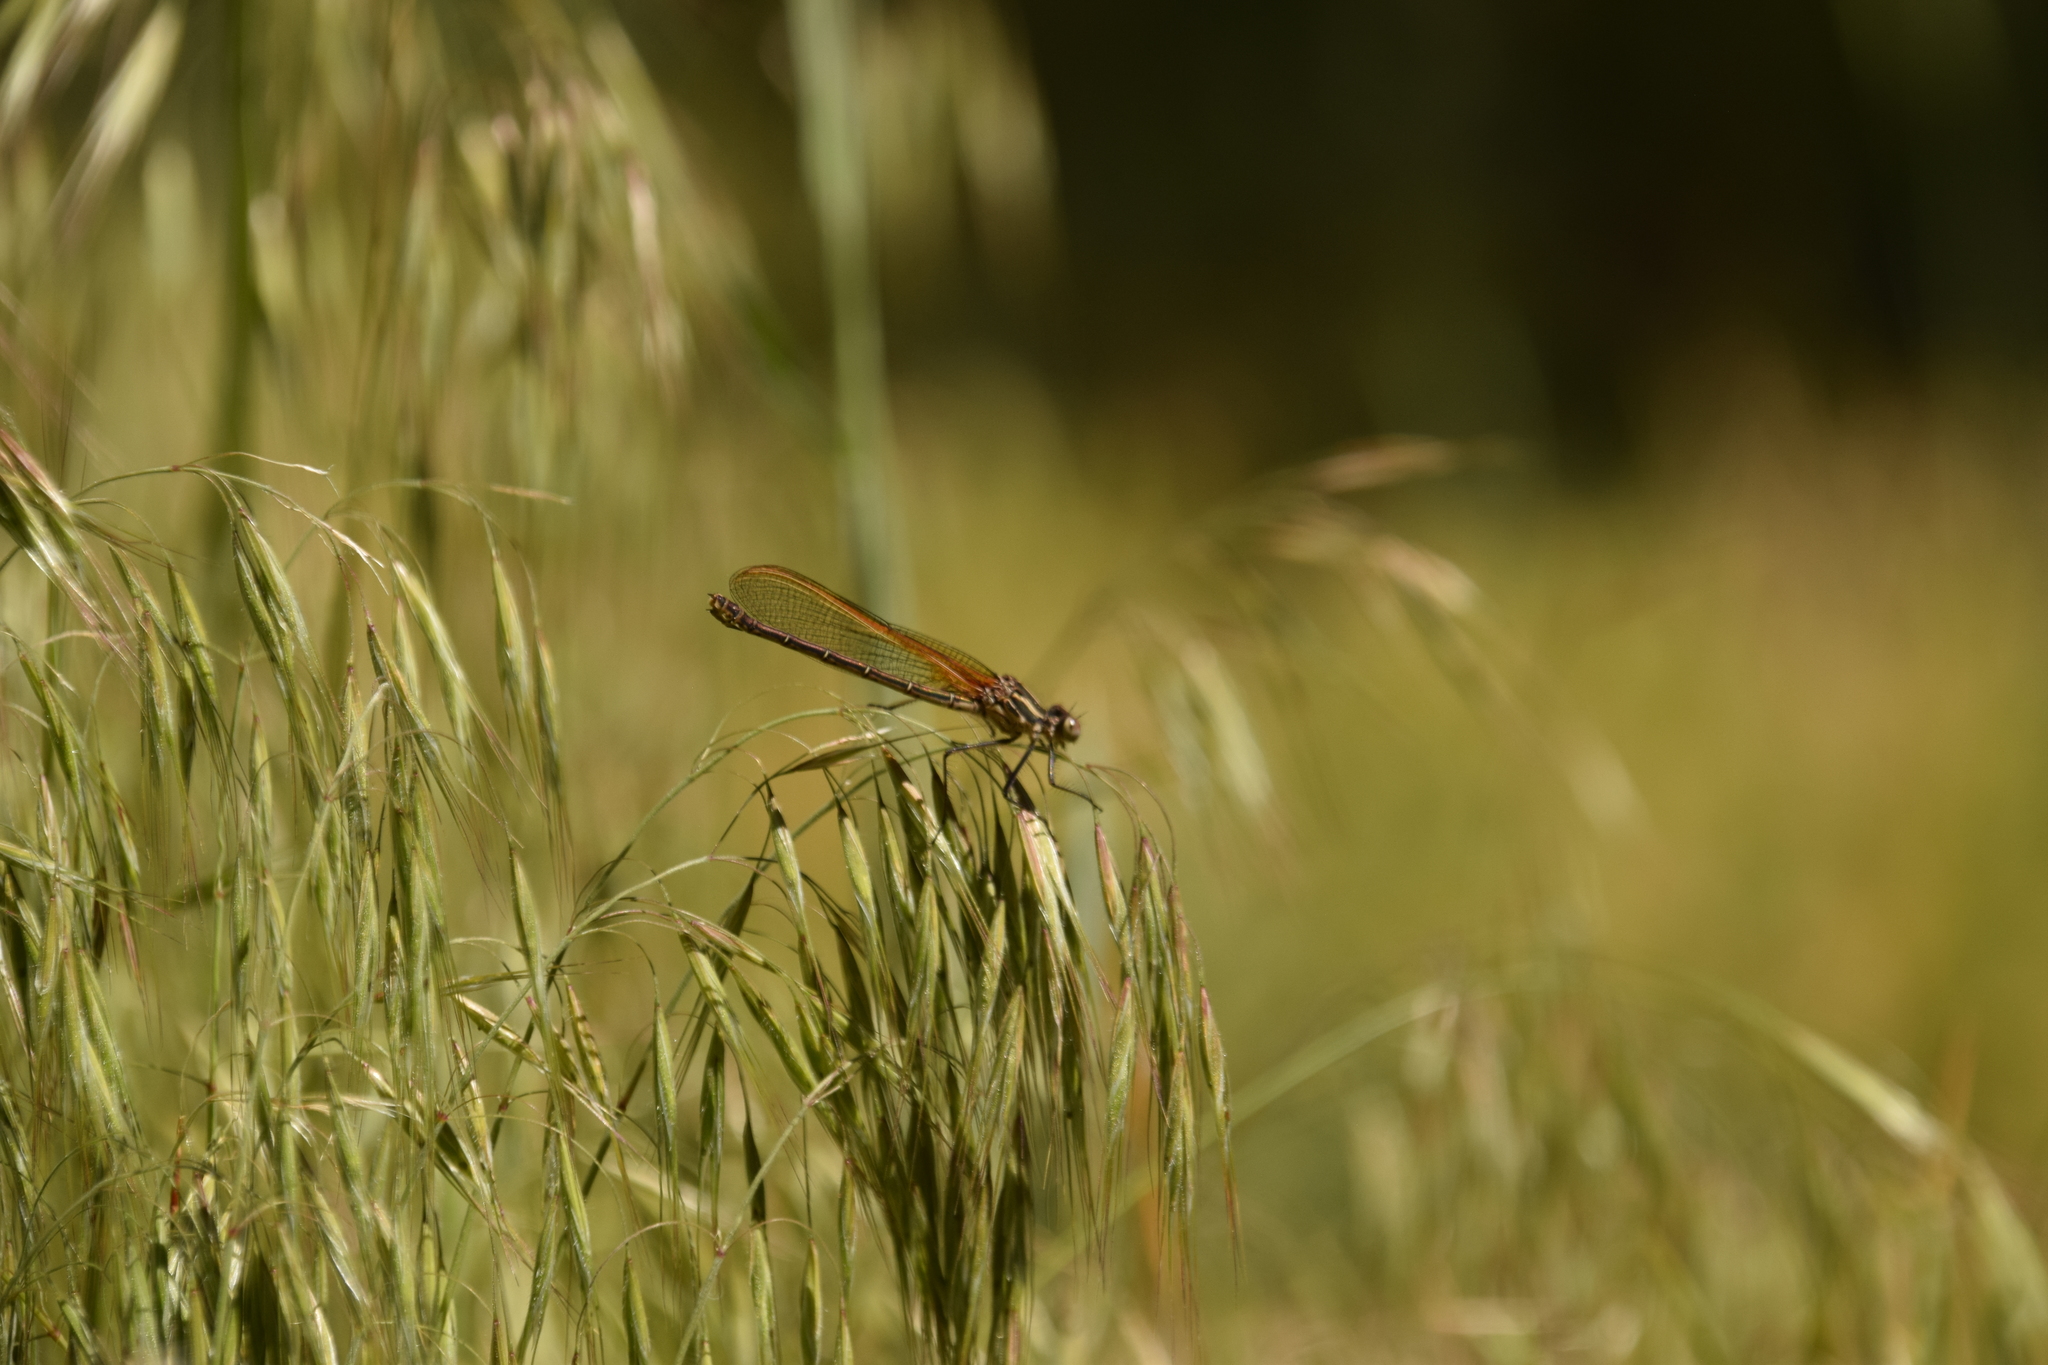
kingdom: Animalia
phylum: Arthropoda
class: Insecta
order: Odonata
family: Calopterygidae
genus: Hetaerina
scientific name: Hetaerina americana
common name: American rubyspot
